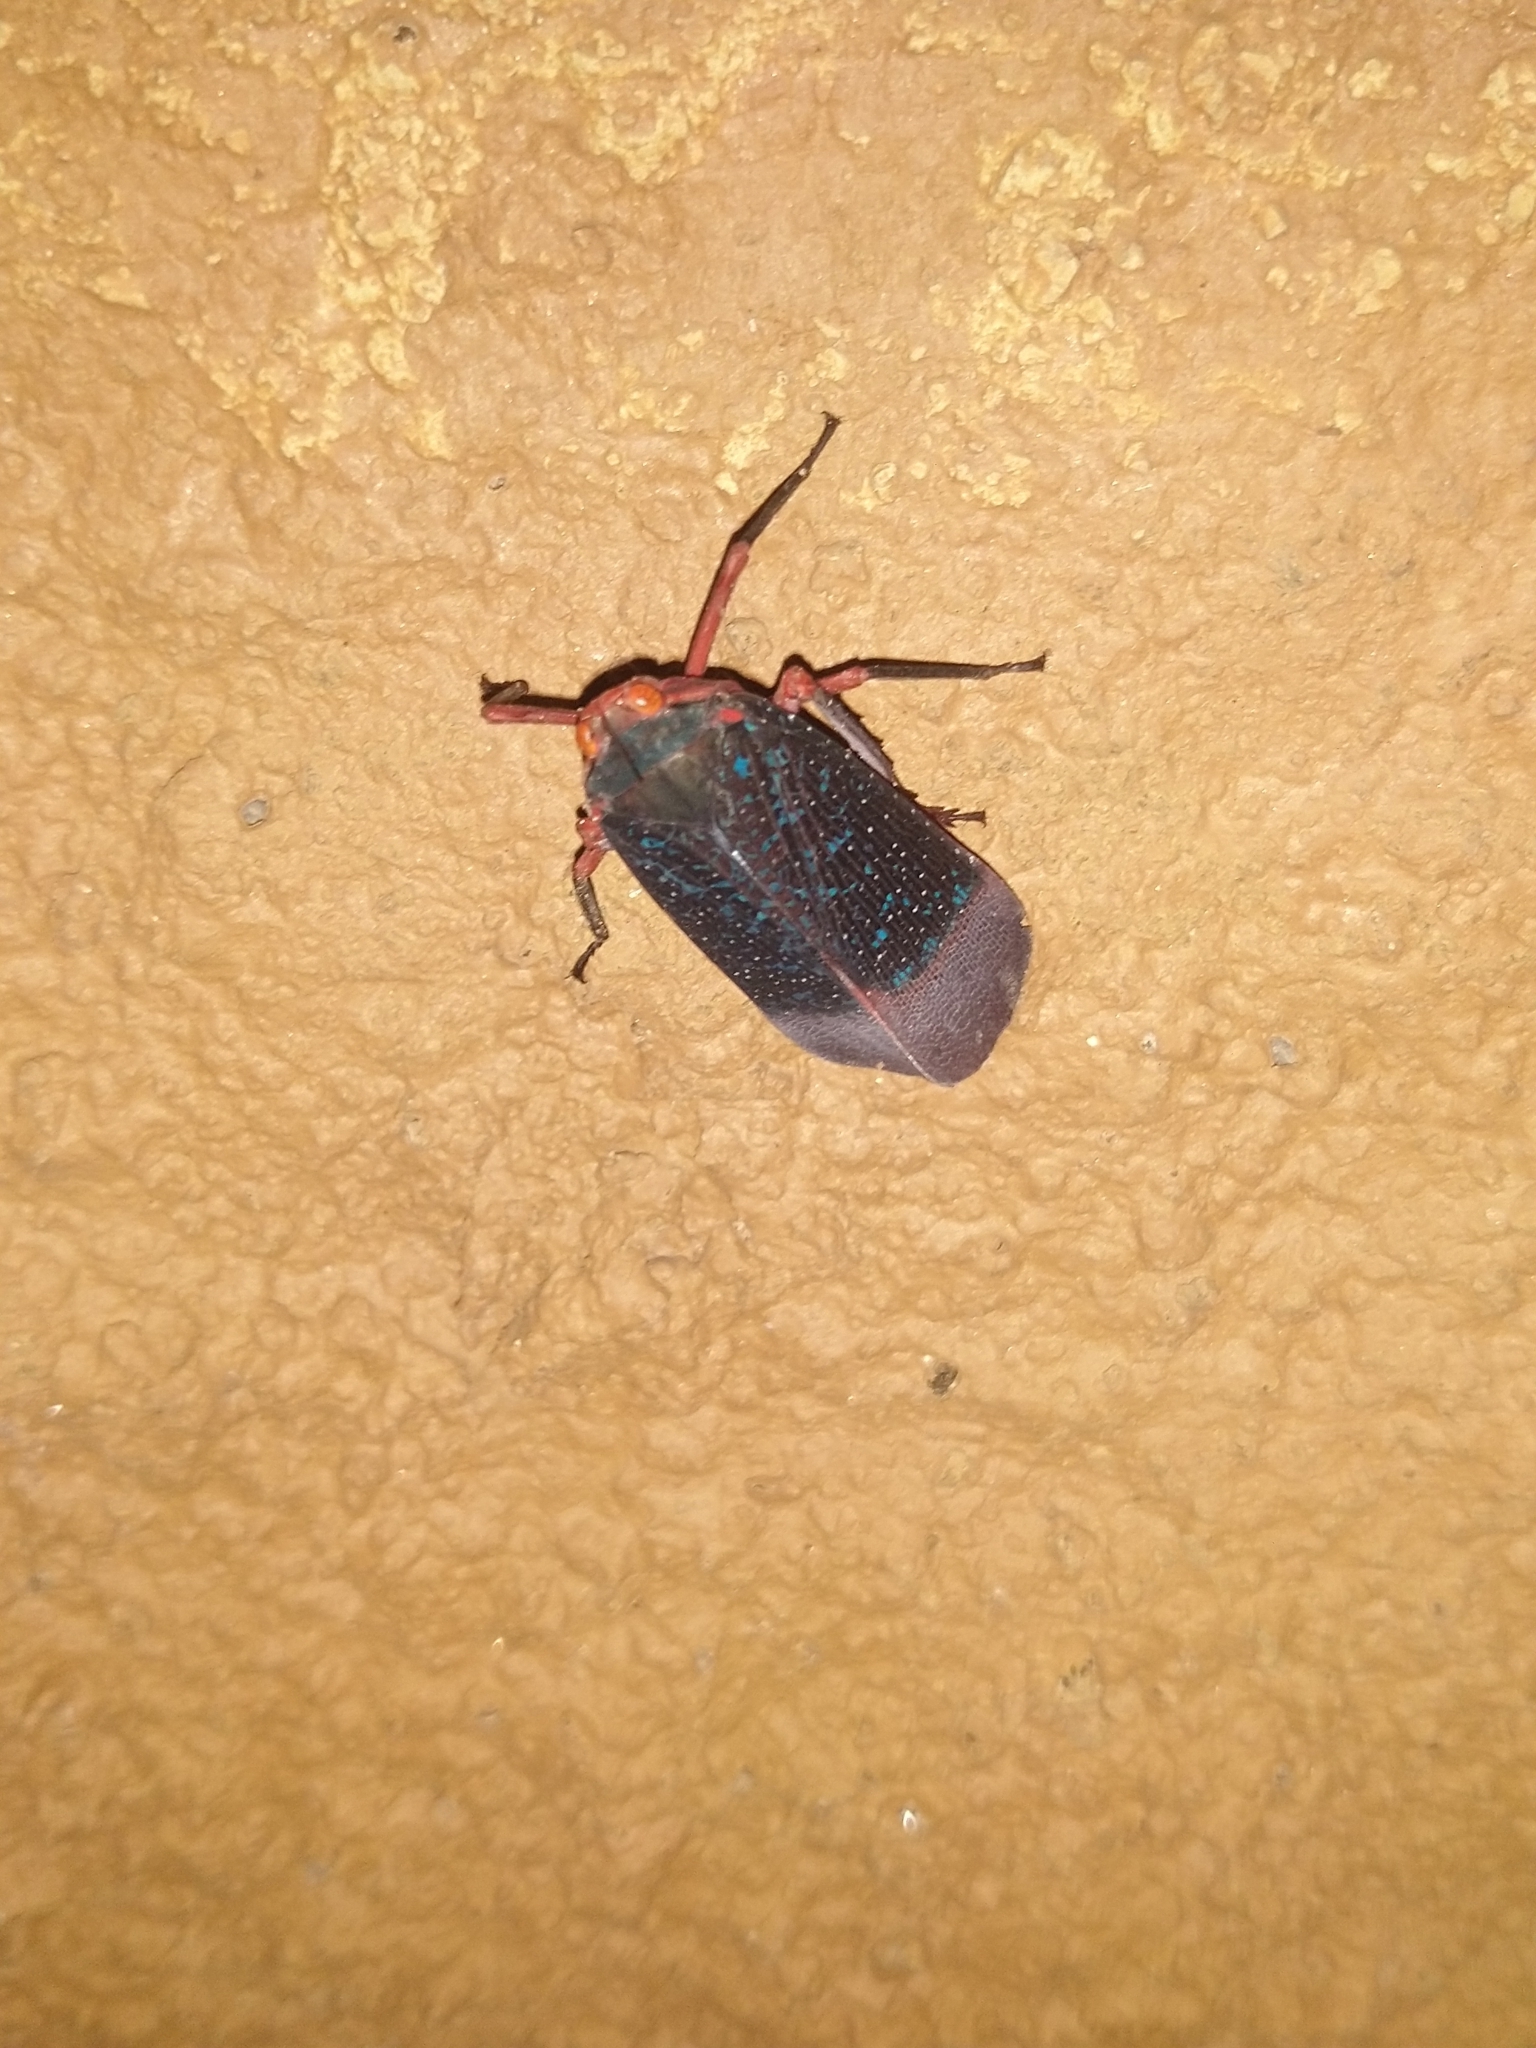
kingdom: Animalia
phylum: Arthropoda
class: Insecta
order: Hemiptera
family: Fulgoridae
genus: Kalidasa
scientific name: Kalidasa lanata
